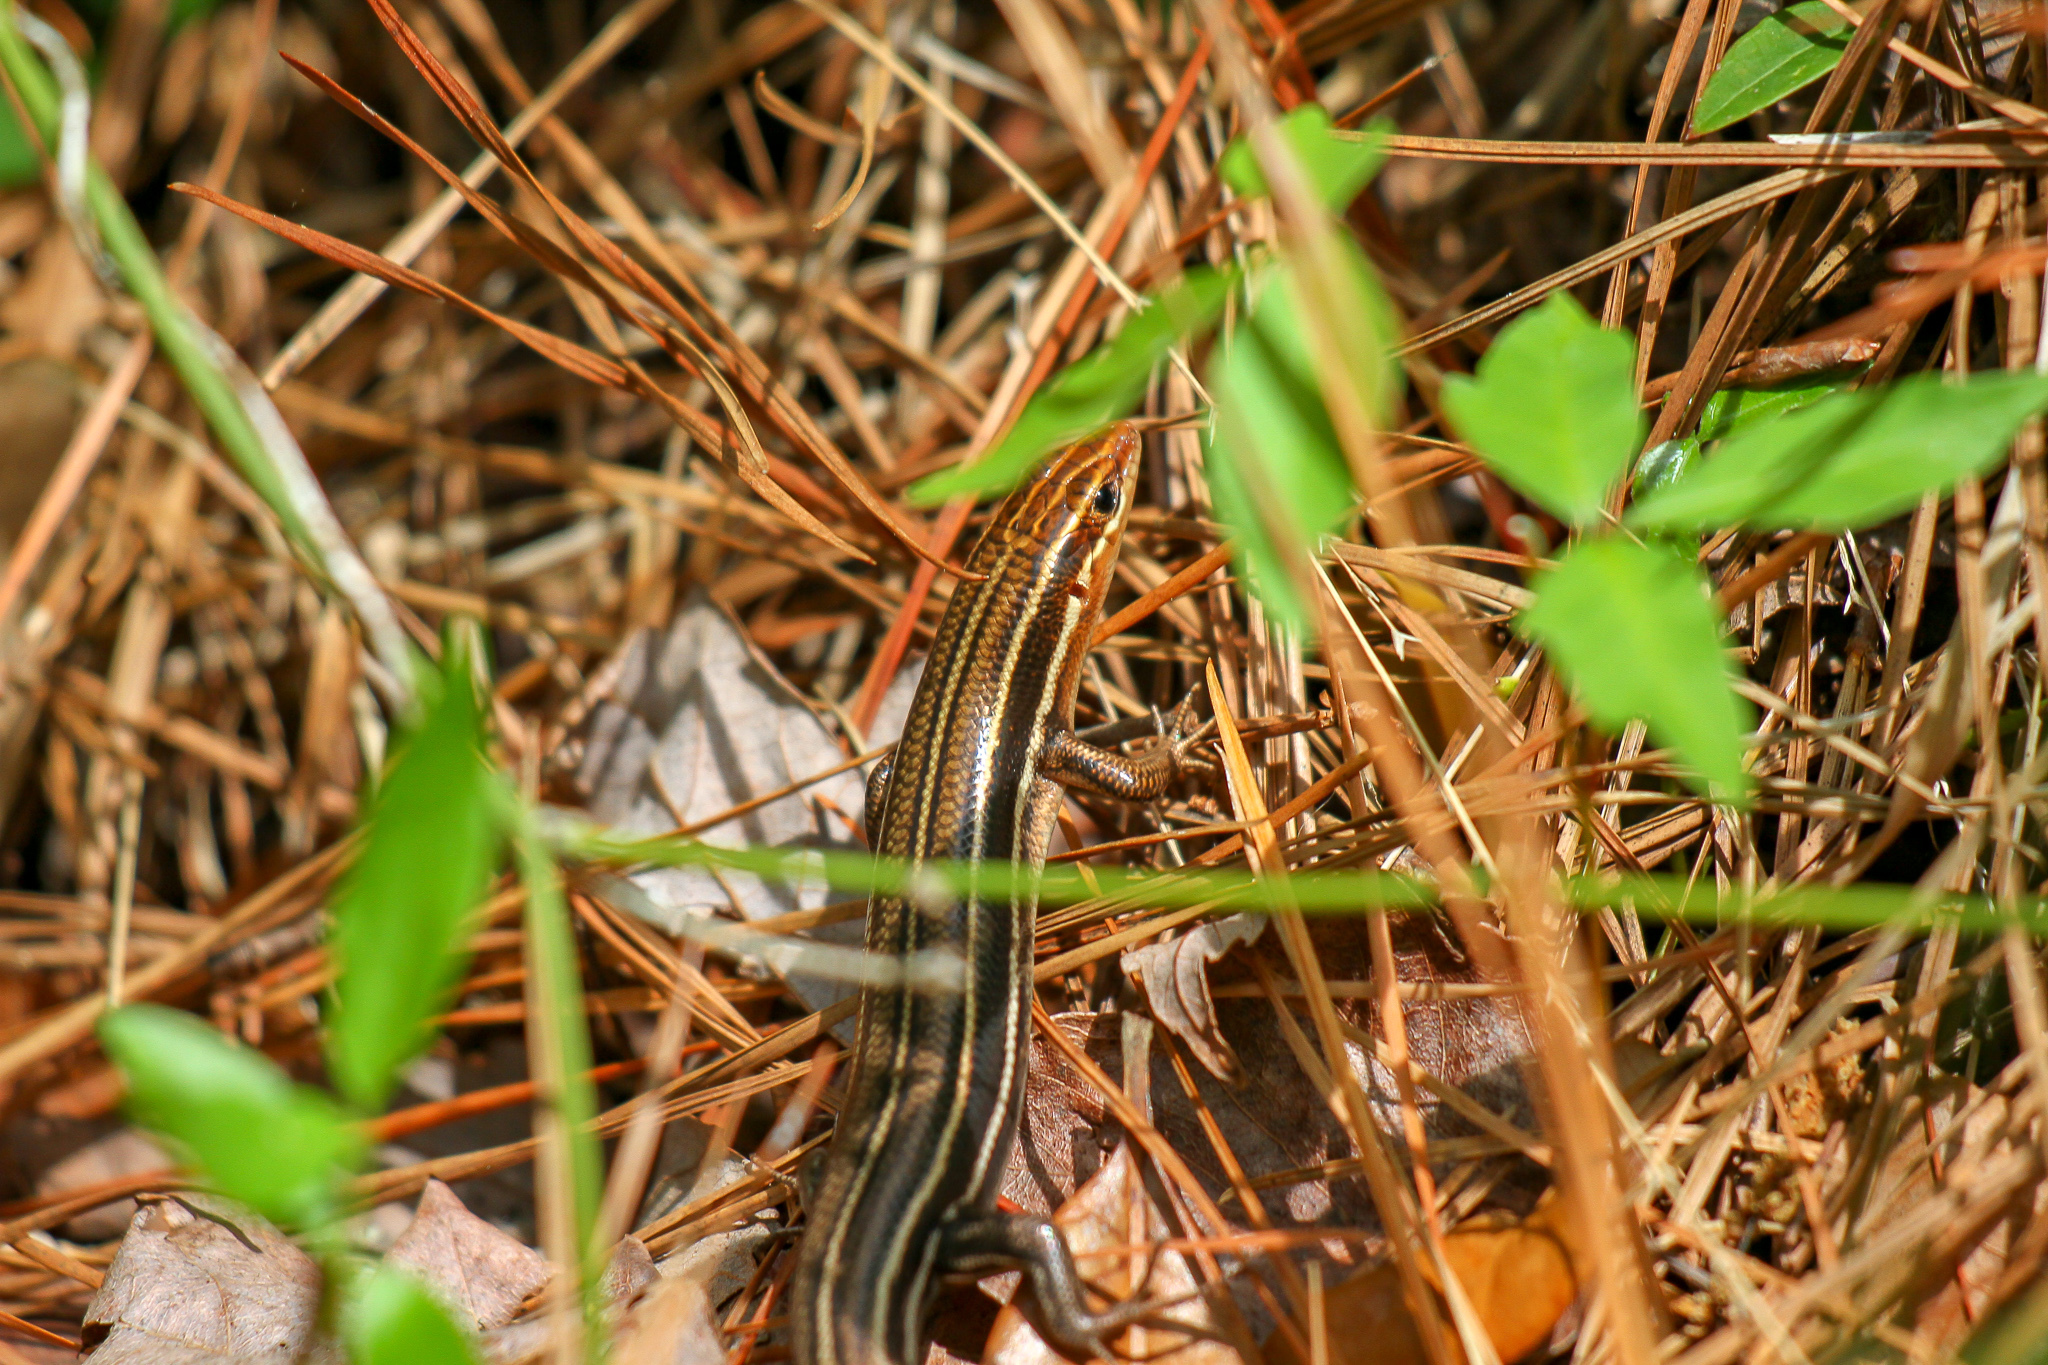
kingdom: Animalia
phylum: Chordata
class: Squamata
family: Scincidae
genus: Plestiodon
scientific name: Plestiodon inexpectatus
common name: Southeastern five-lined skink
